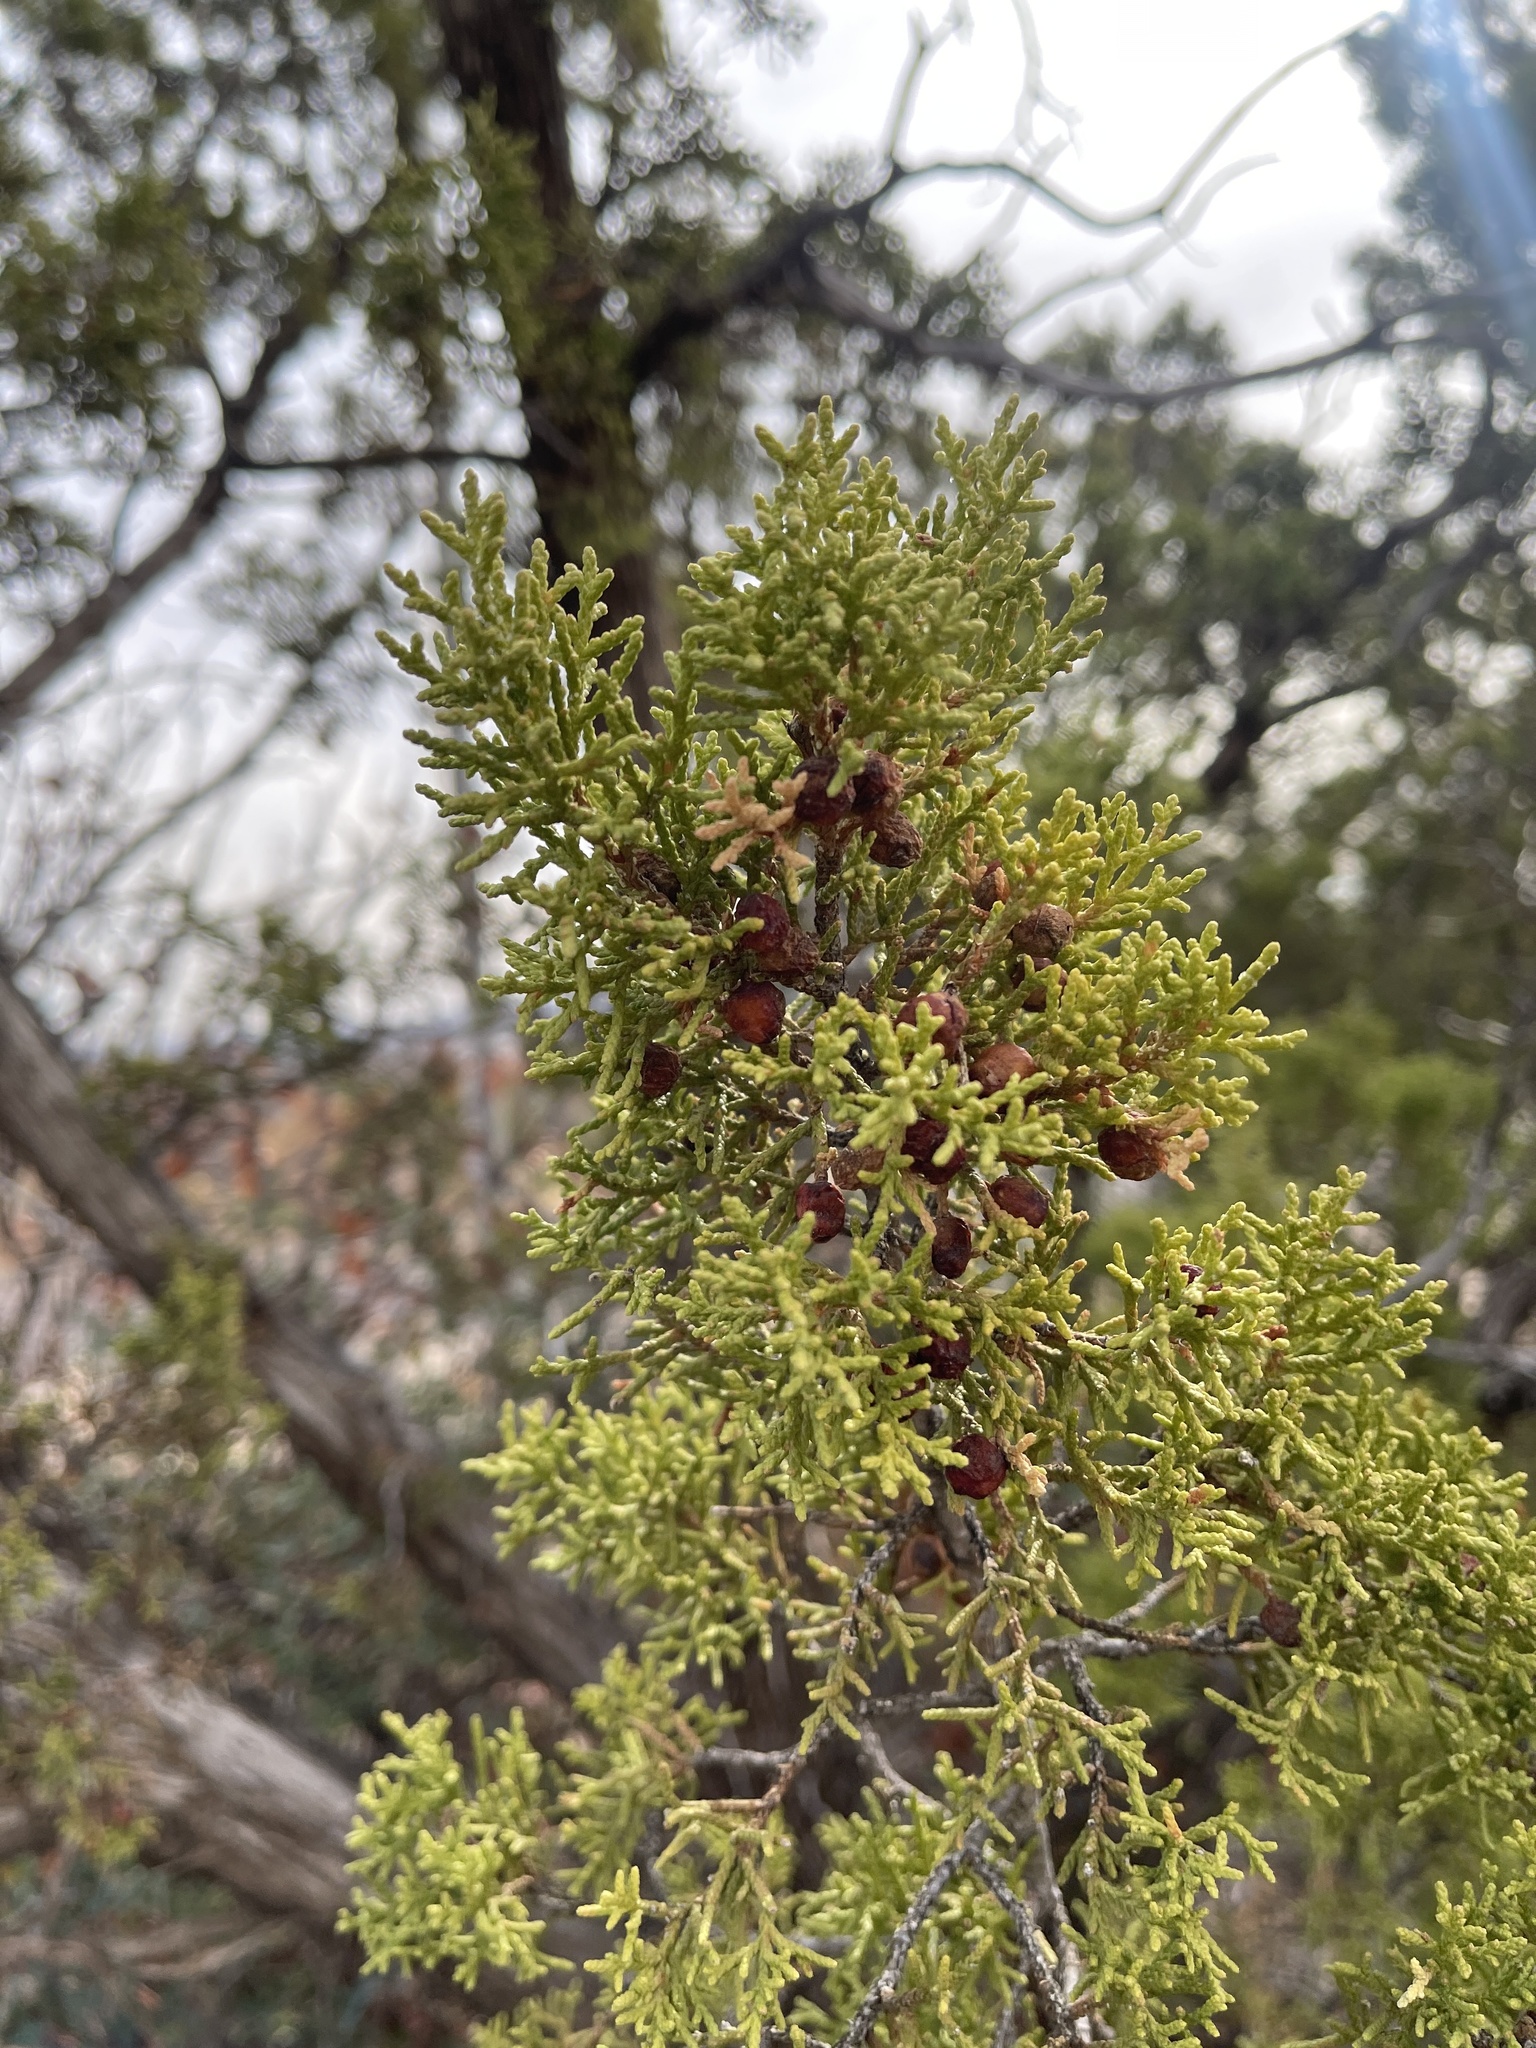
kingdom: Plantae
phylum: Tracheophyta
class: Pinopsida
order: Pinales
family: Cupressaceae
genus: Juniperus
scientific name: Juniperus pinchotii
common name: Pinchot juniper
